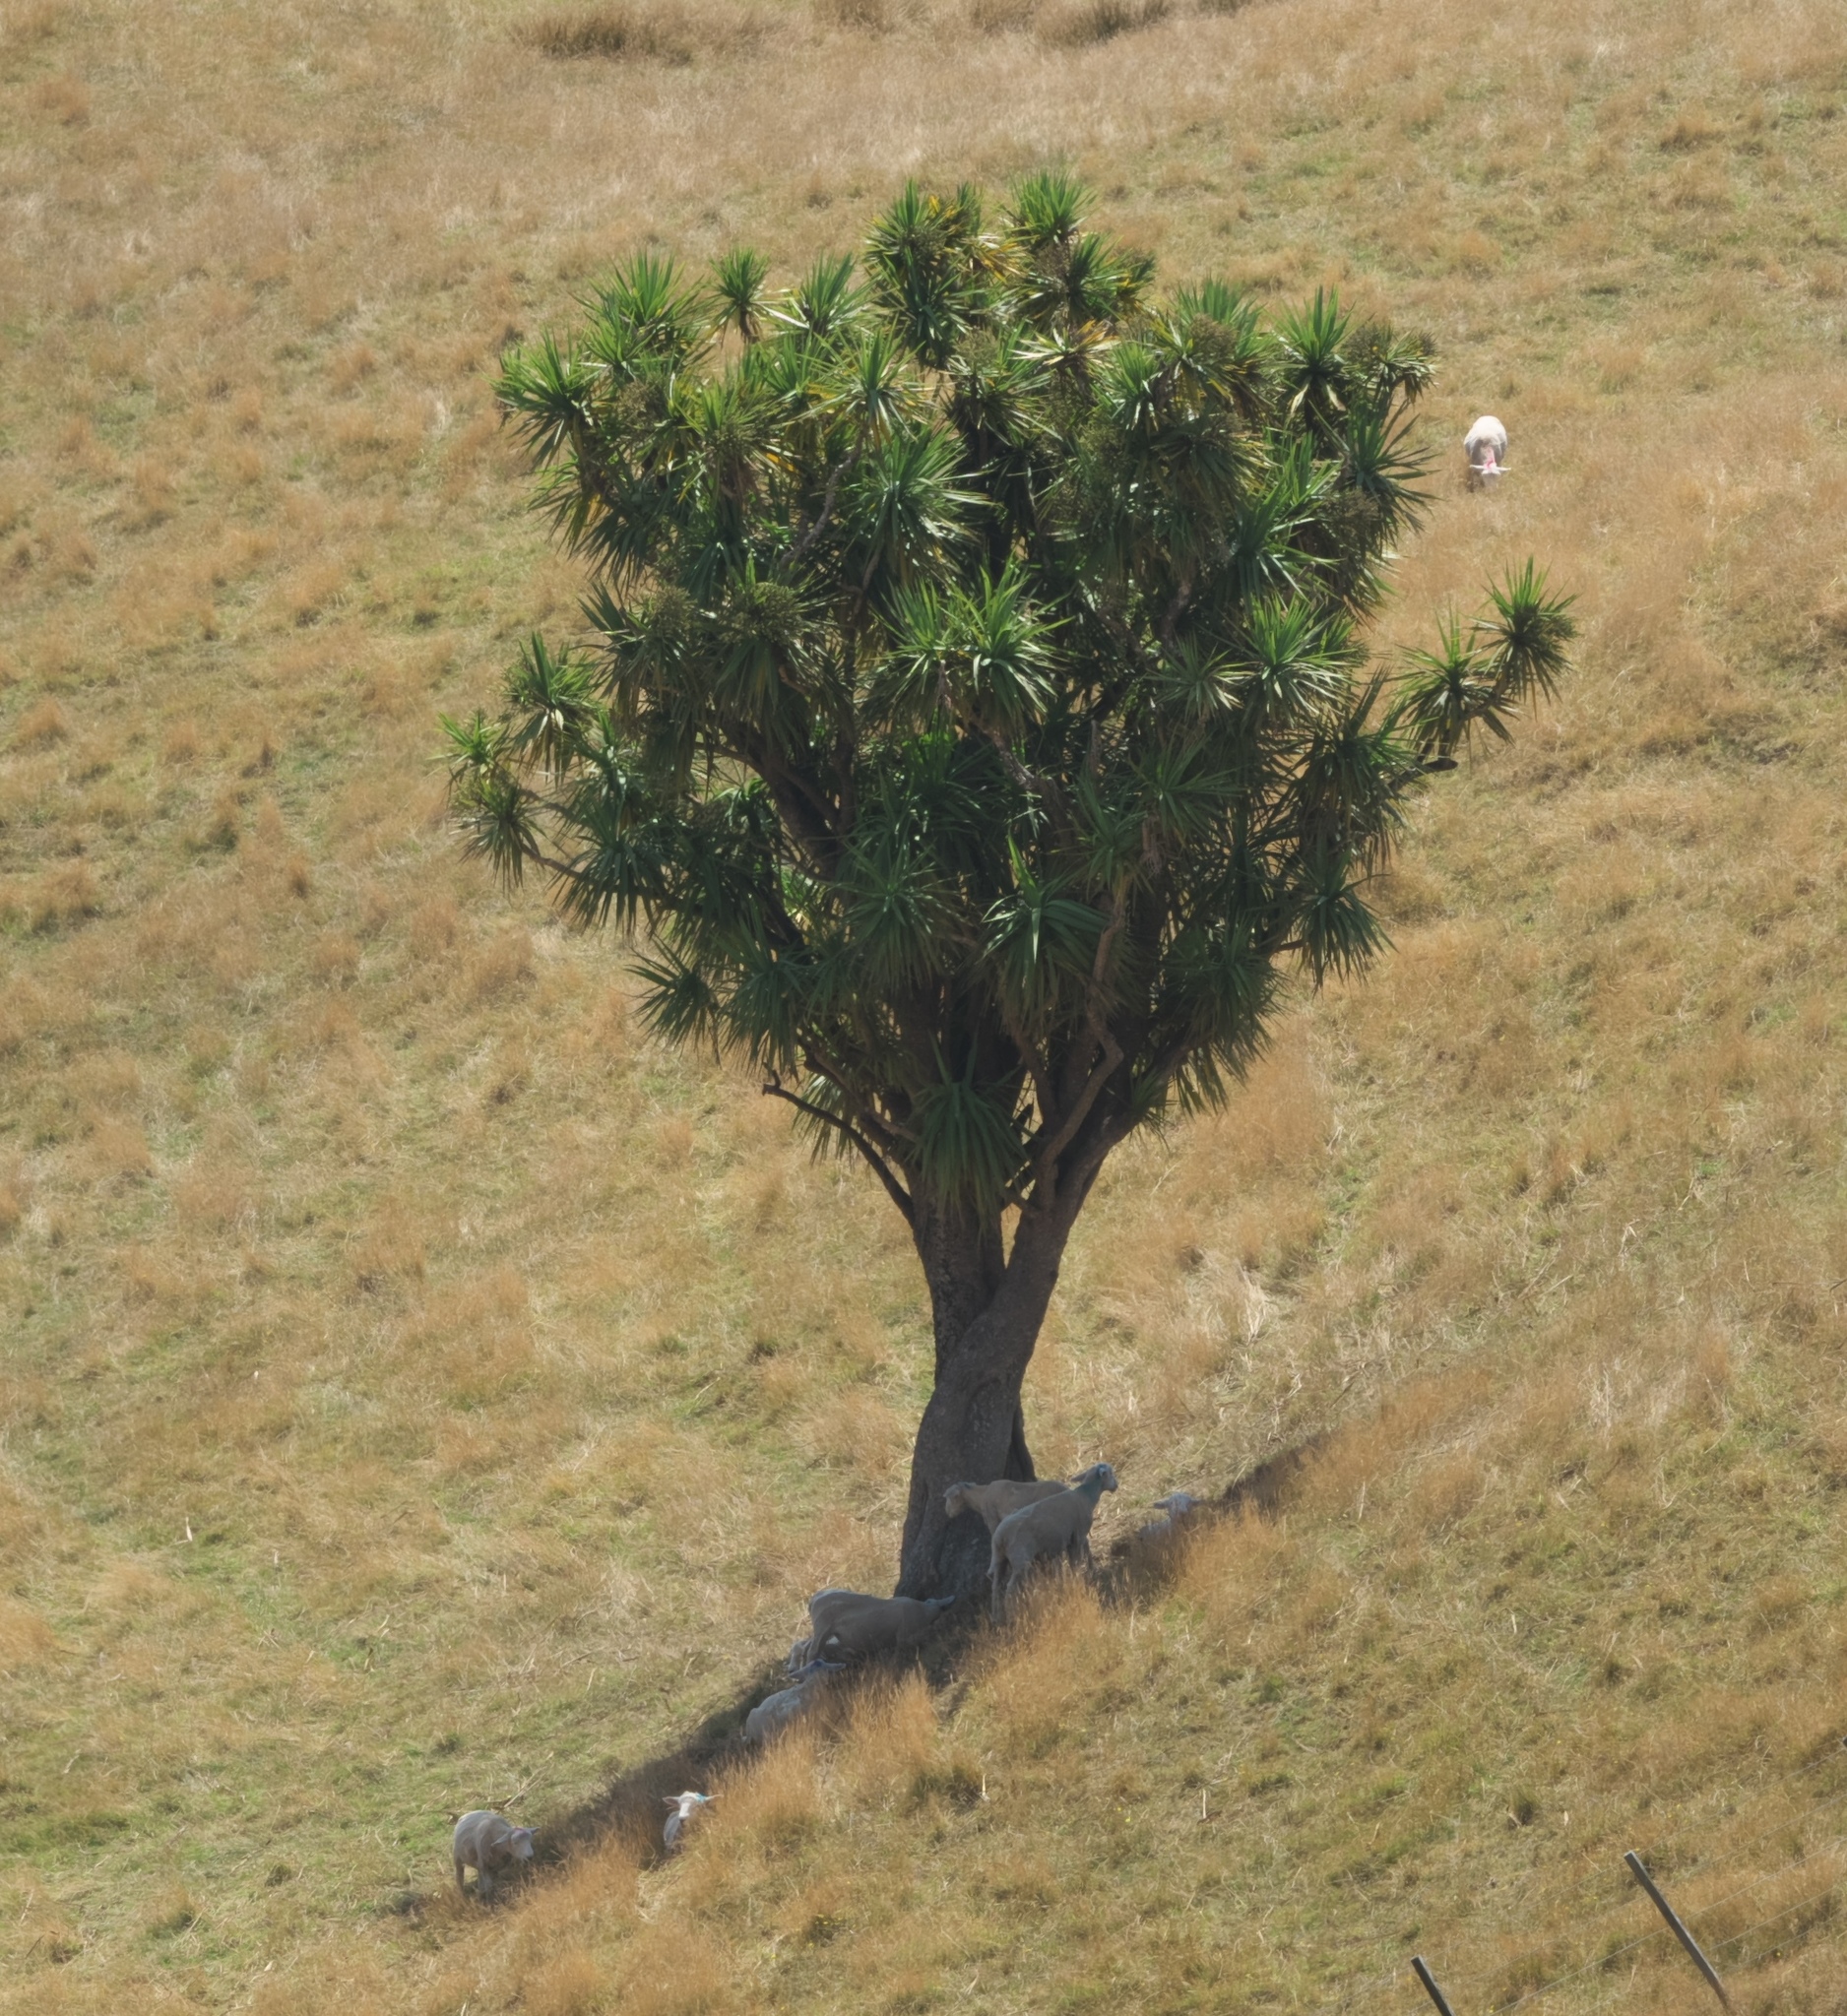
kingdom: Plantae
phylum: Tracheophyta
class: Liliopsida
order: Asparagales
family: Asparagaceae
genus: Cordyline
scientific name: Cordyline australis
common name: Cabbage-palm
